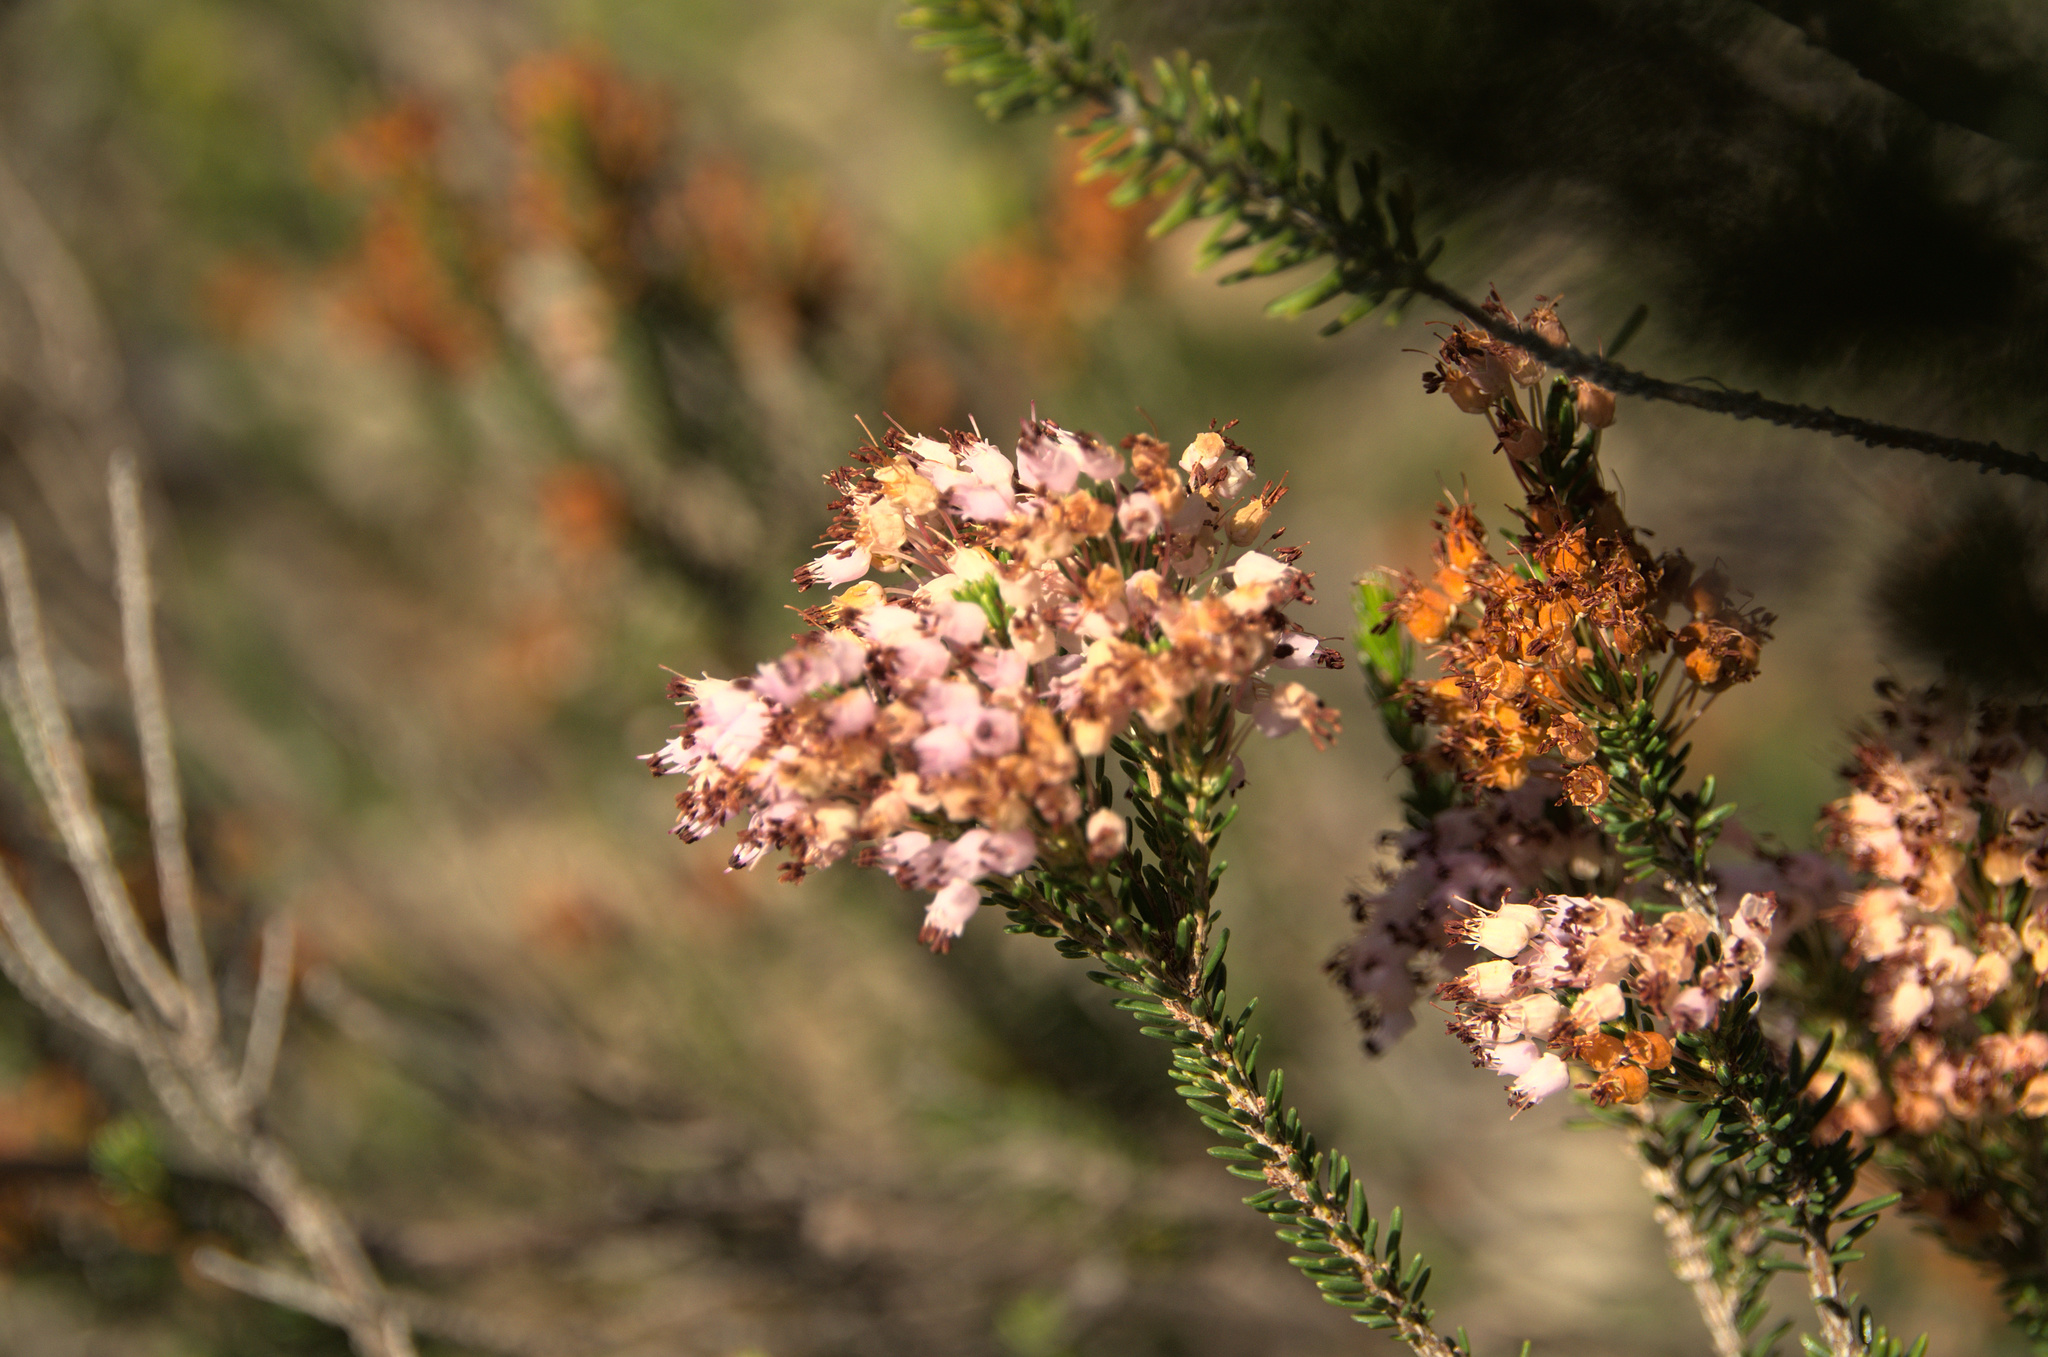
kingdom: Plantae
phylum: Tracheophyta
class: Magnoliopsida
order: Ericales
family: Ericaceae
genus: Erica
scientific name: Erica multiflora
